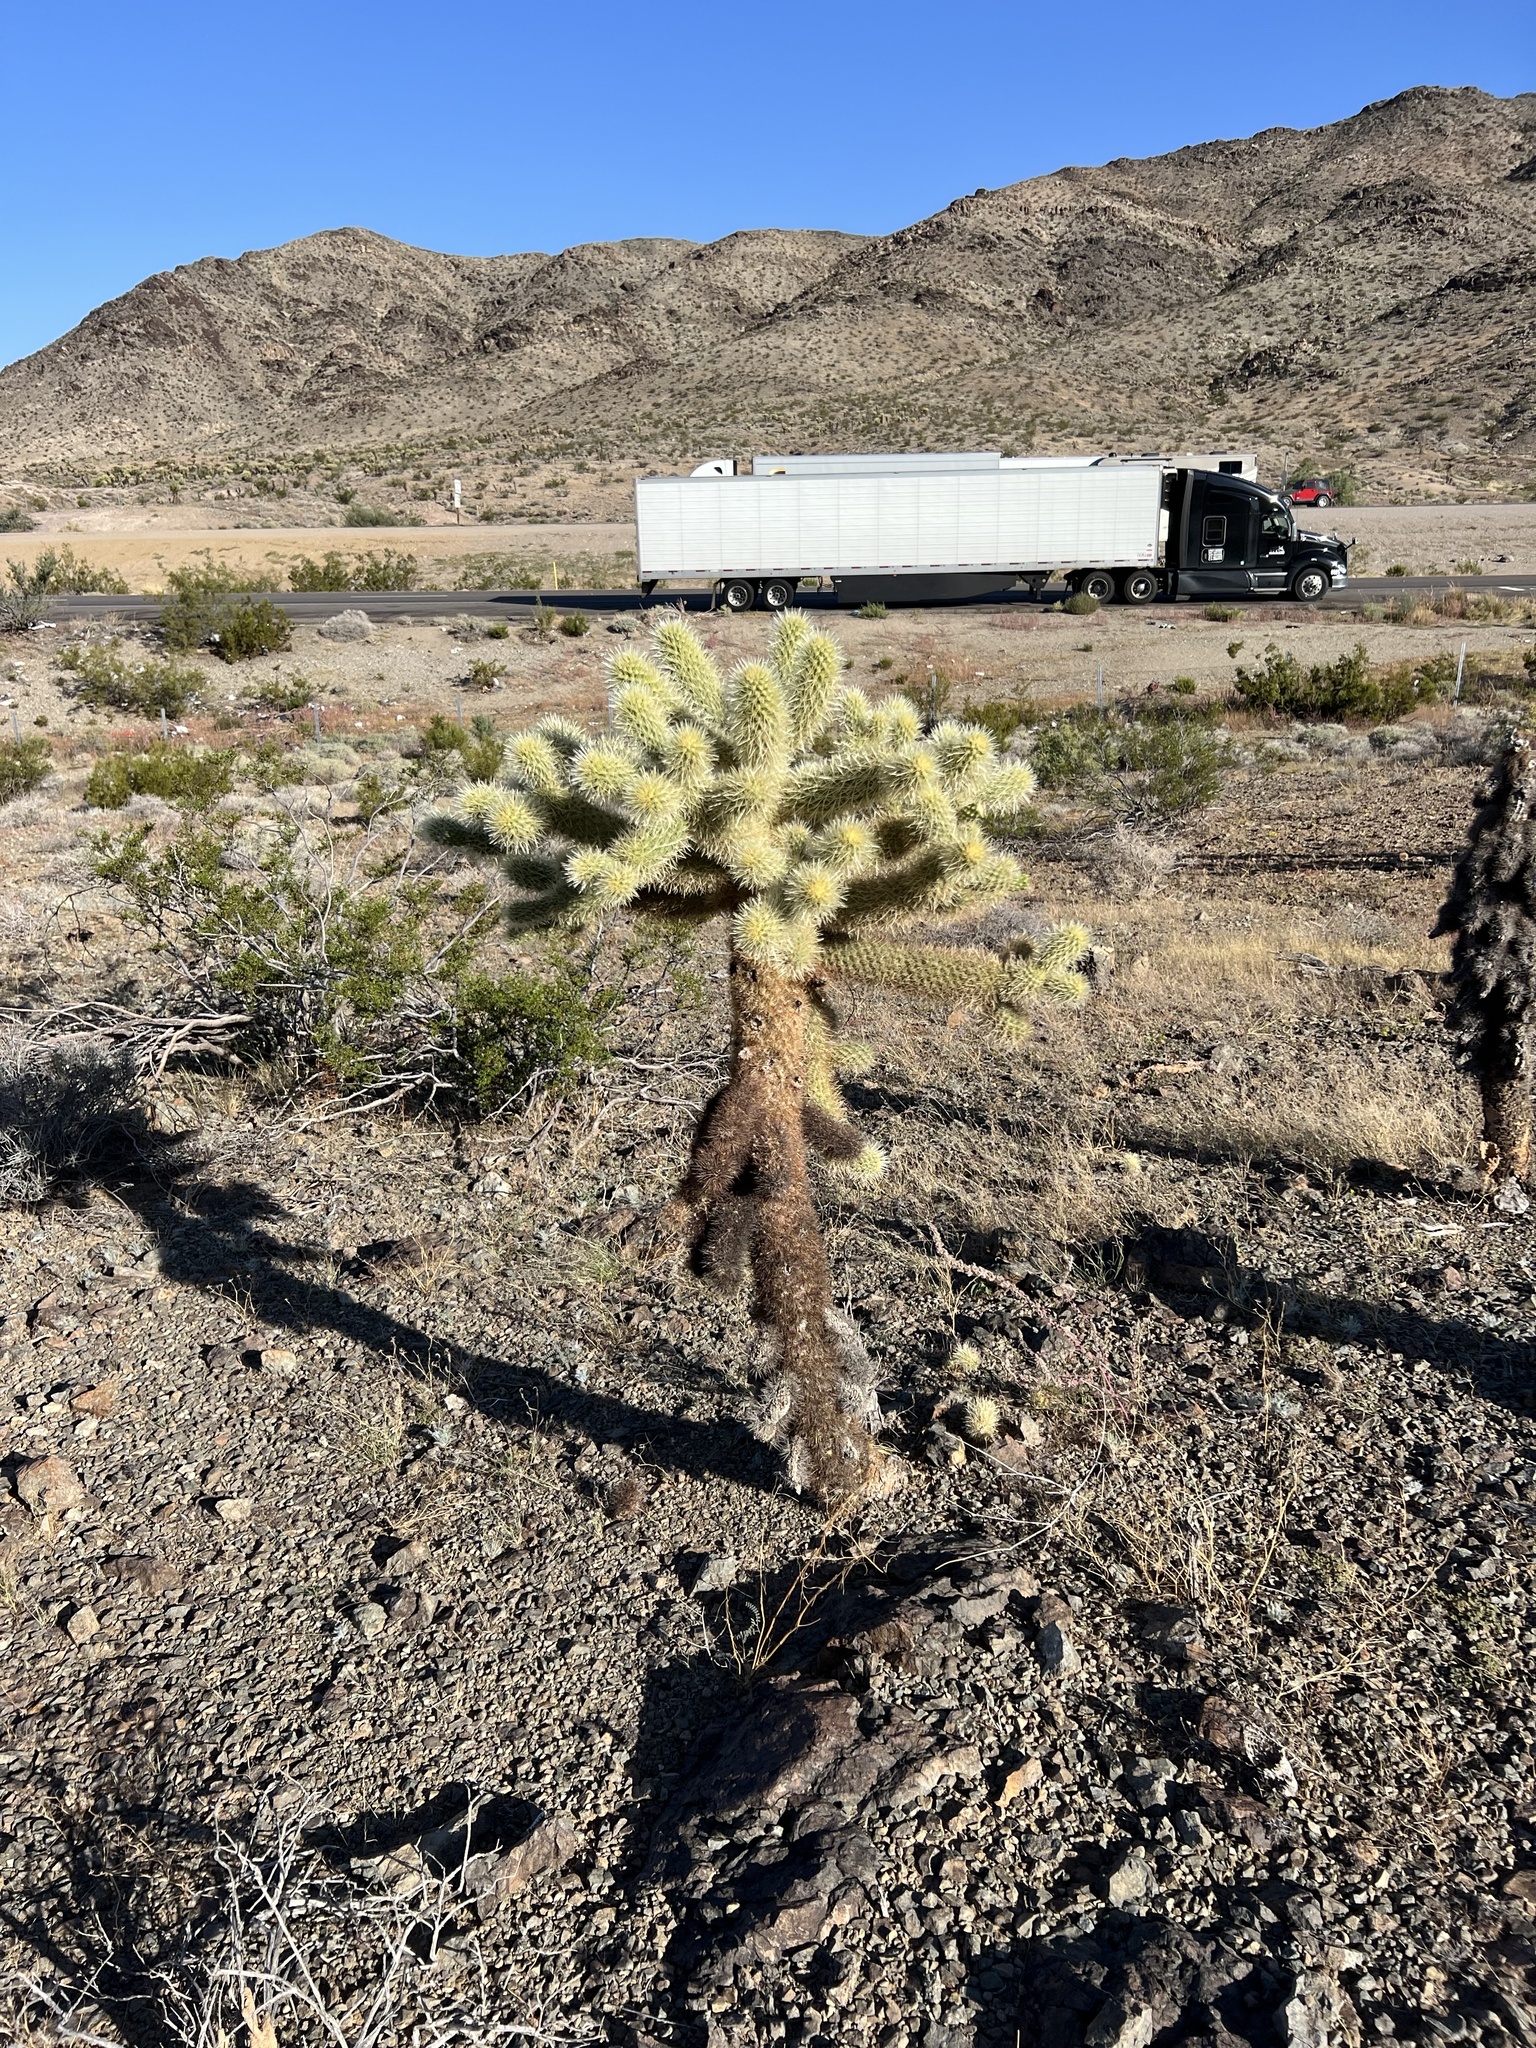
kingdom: Plantae
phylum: Tracheophyta
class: Magnoliopsida
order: Caryophyllales
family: Cactaceae
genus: Cylindropuntia
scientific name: Cylindropuntia fosbergii
